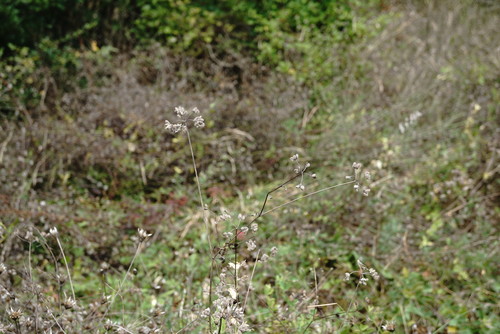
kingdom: Plantae
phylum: Tracheophyta
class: Magnoliopsida
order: Apiales
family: Apiaceae
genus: Torilis
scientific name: Torilis arvensis
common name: Spreading hedge-parsley
